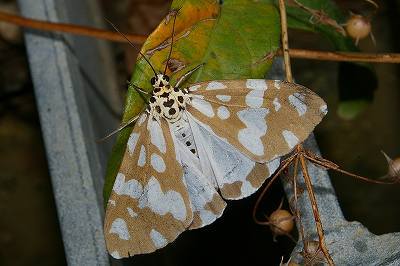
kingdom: Animalia
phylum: Arthropoda
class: Insecta
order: Lepidoptera
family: Erebidae
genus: Utetheisa
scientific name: Utetheisa inconstans
